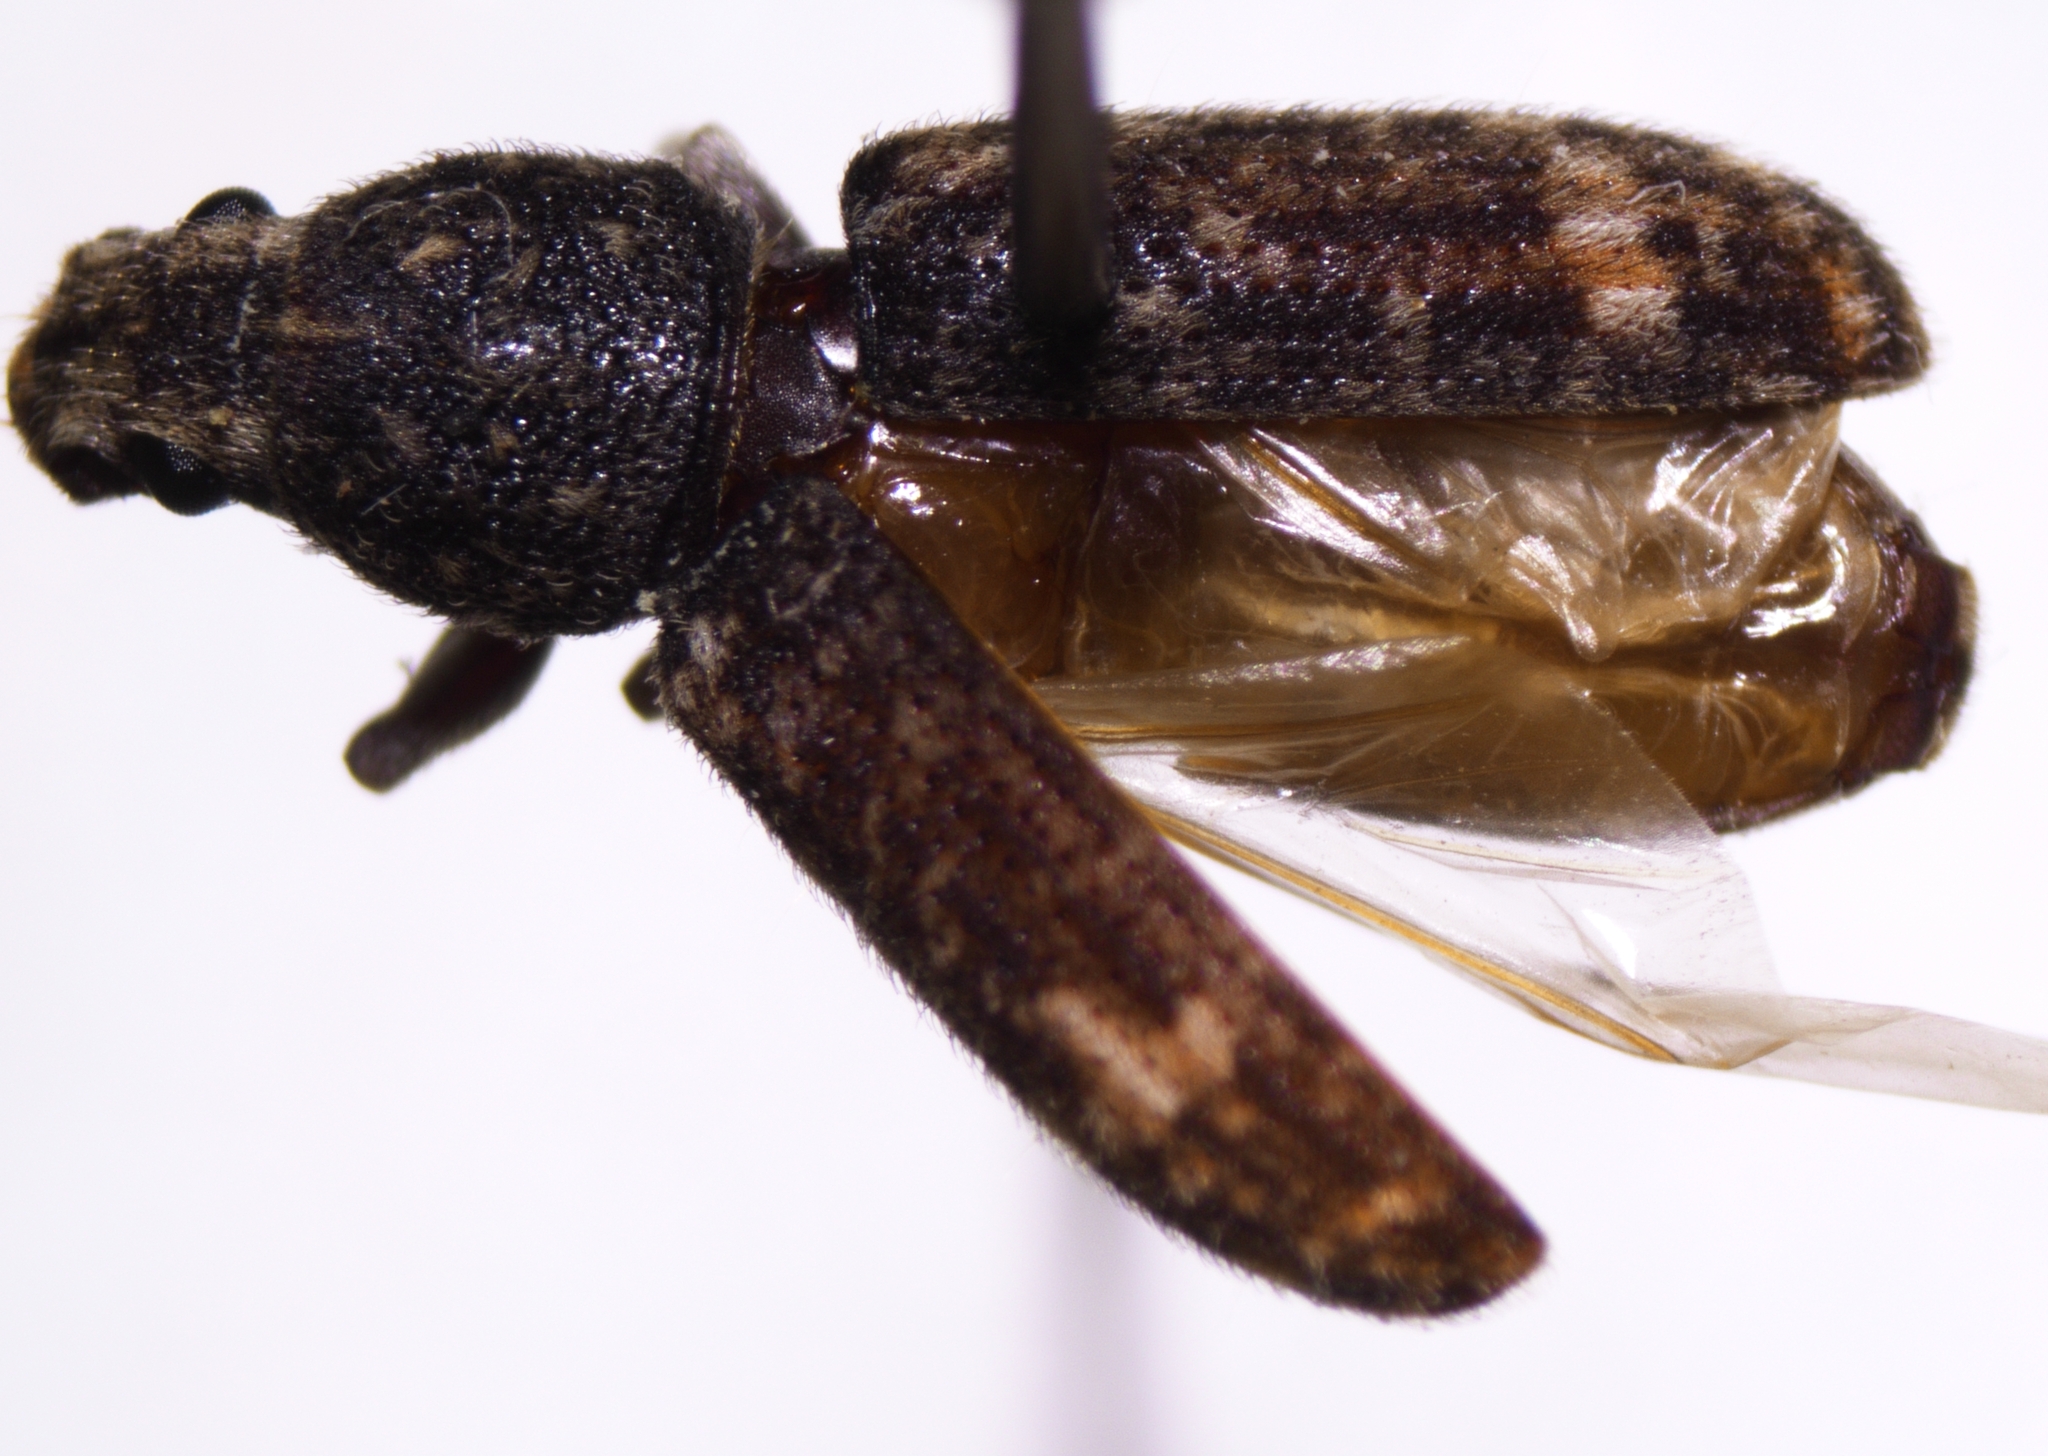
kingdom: Animalia
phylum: Arthropoda
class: Insecta
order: Coleoptera
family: Anthribidae
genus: Eucorynus
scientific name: Eucorynus crassicornis
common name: Fungus weevil
